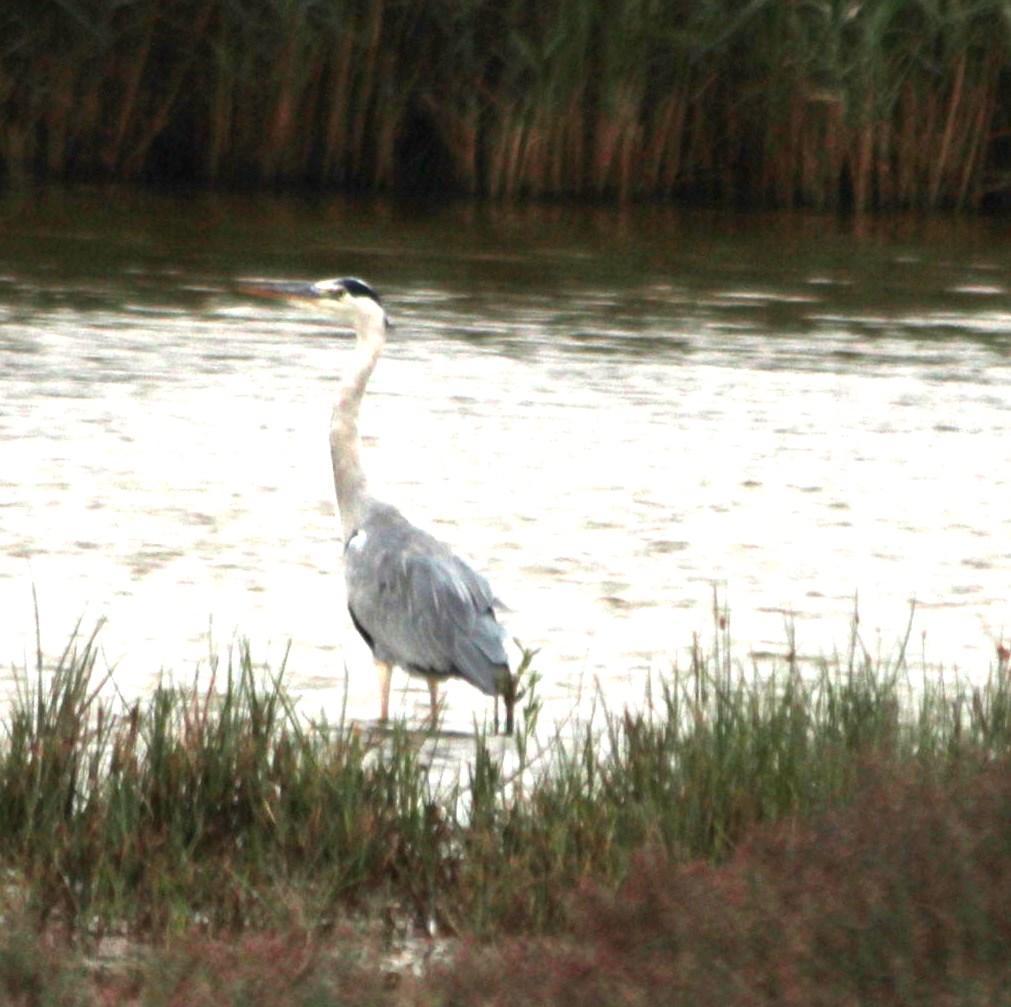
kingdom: Animalia
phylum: Chordata
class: Aves
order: Pelecaniformes
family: Ardeidae
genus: Ardea
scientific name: Ardea cinerea
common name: Grey heron
